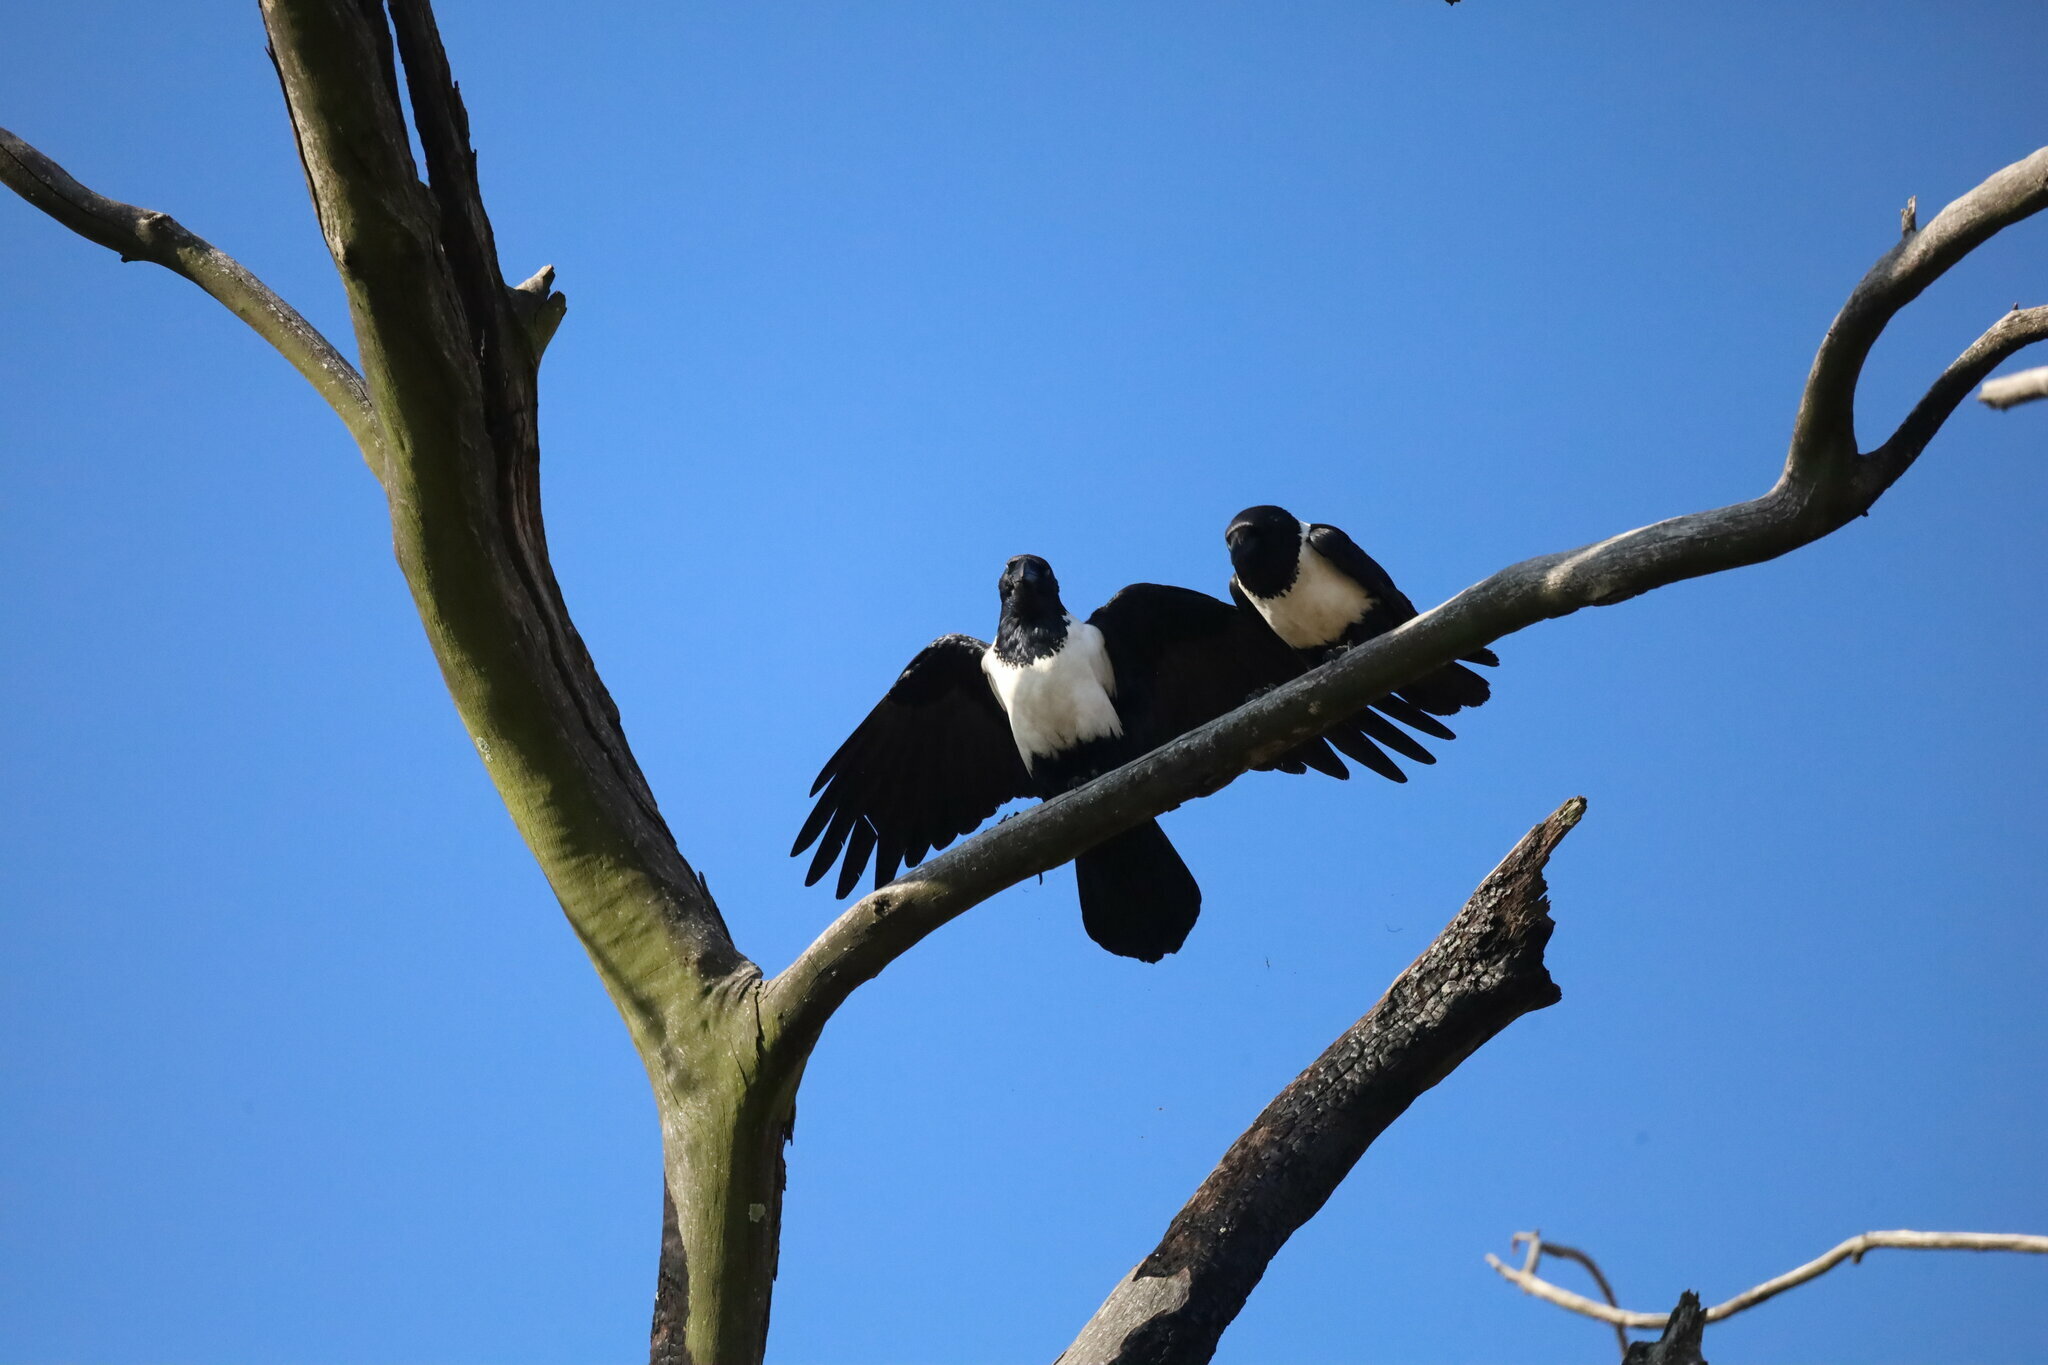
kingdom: Animalia
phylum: Chordata
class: Aves
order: Passeriformes
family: Corvidae
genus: Corvus
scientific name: Corvus albus
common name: Pied crow
